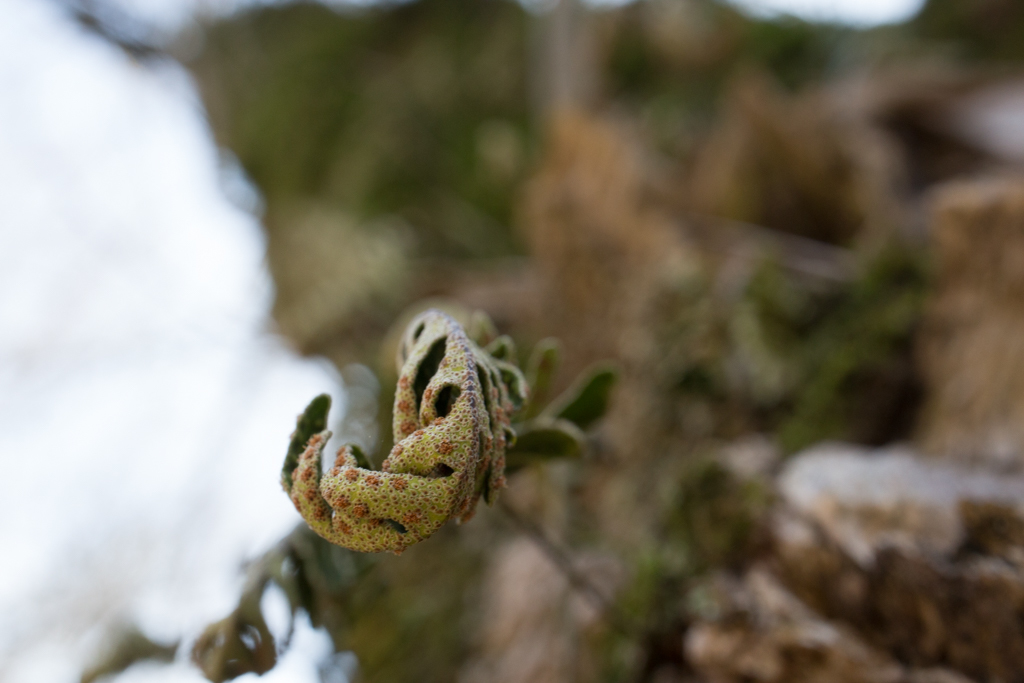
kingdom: Plantae
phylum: Tracheophyta
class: Polypodiopsida
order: Polypodiales
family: Polypodiaceae
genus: Pleopeltis
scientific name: Pleopeltis michauxiana
